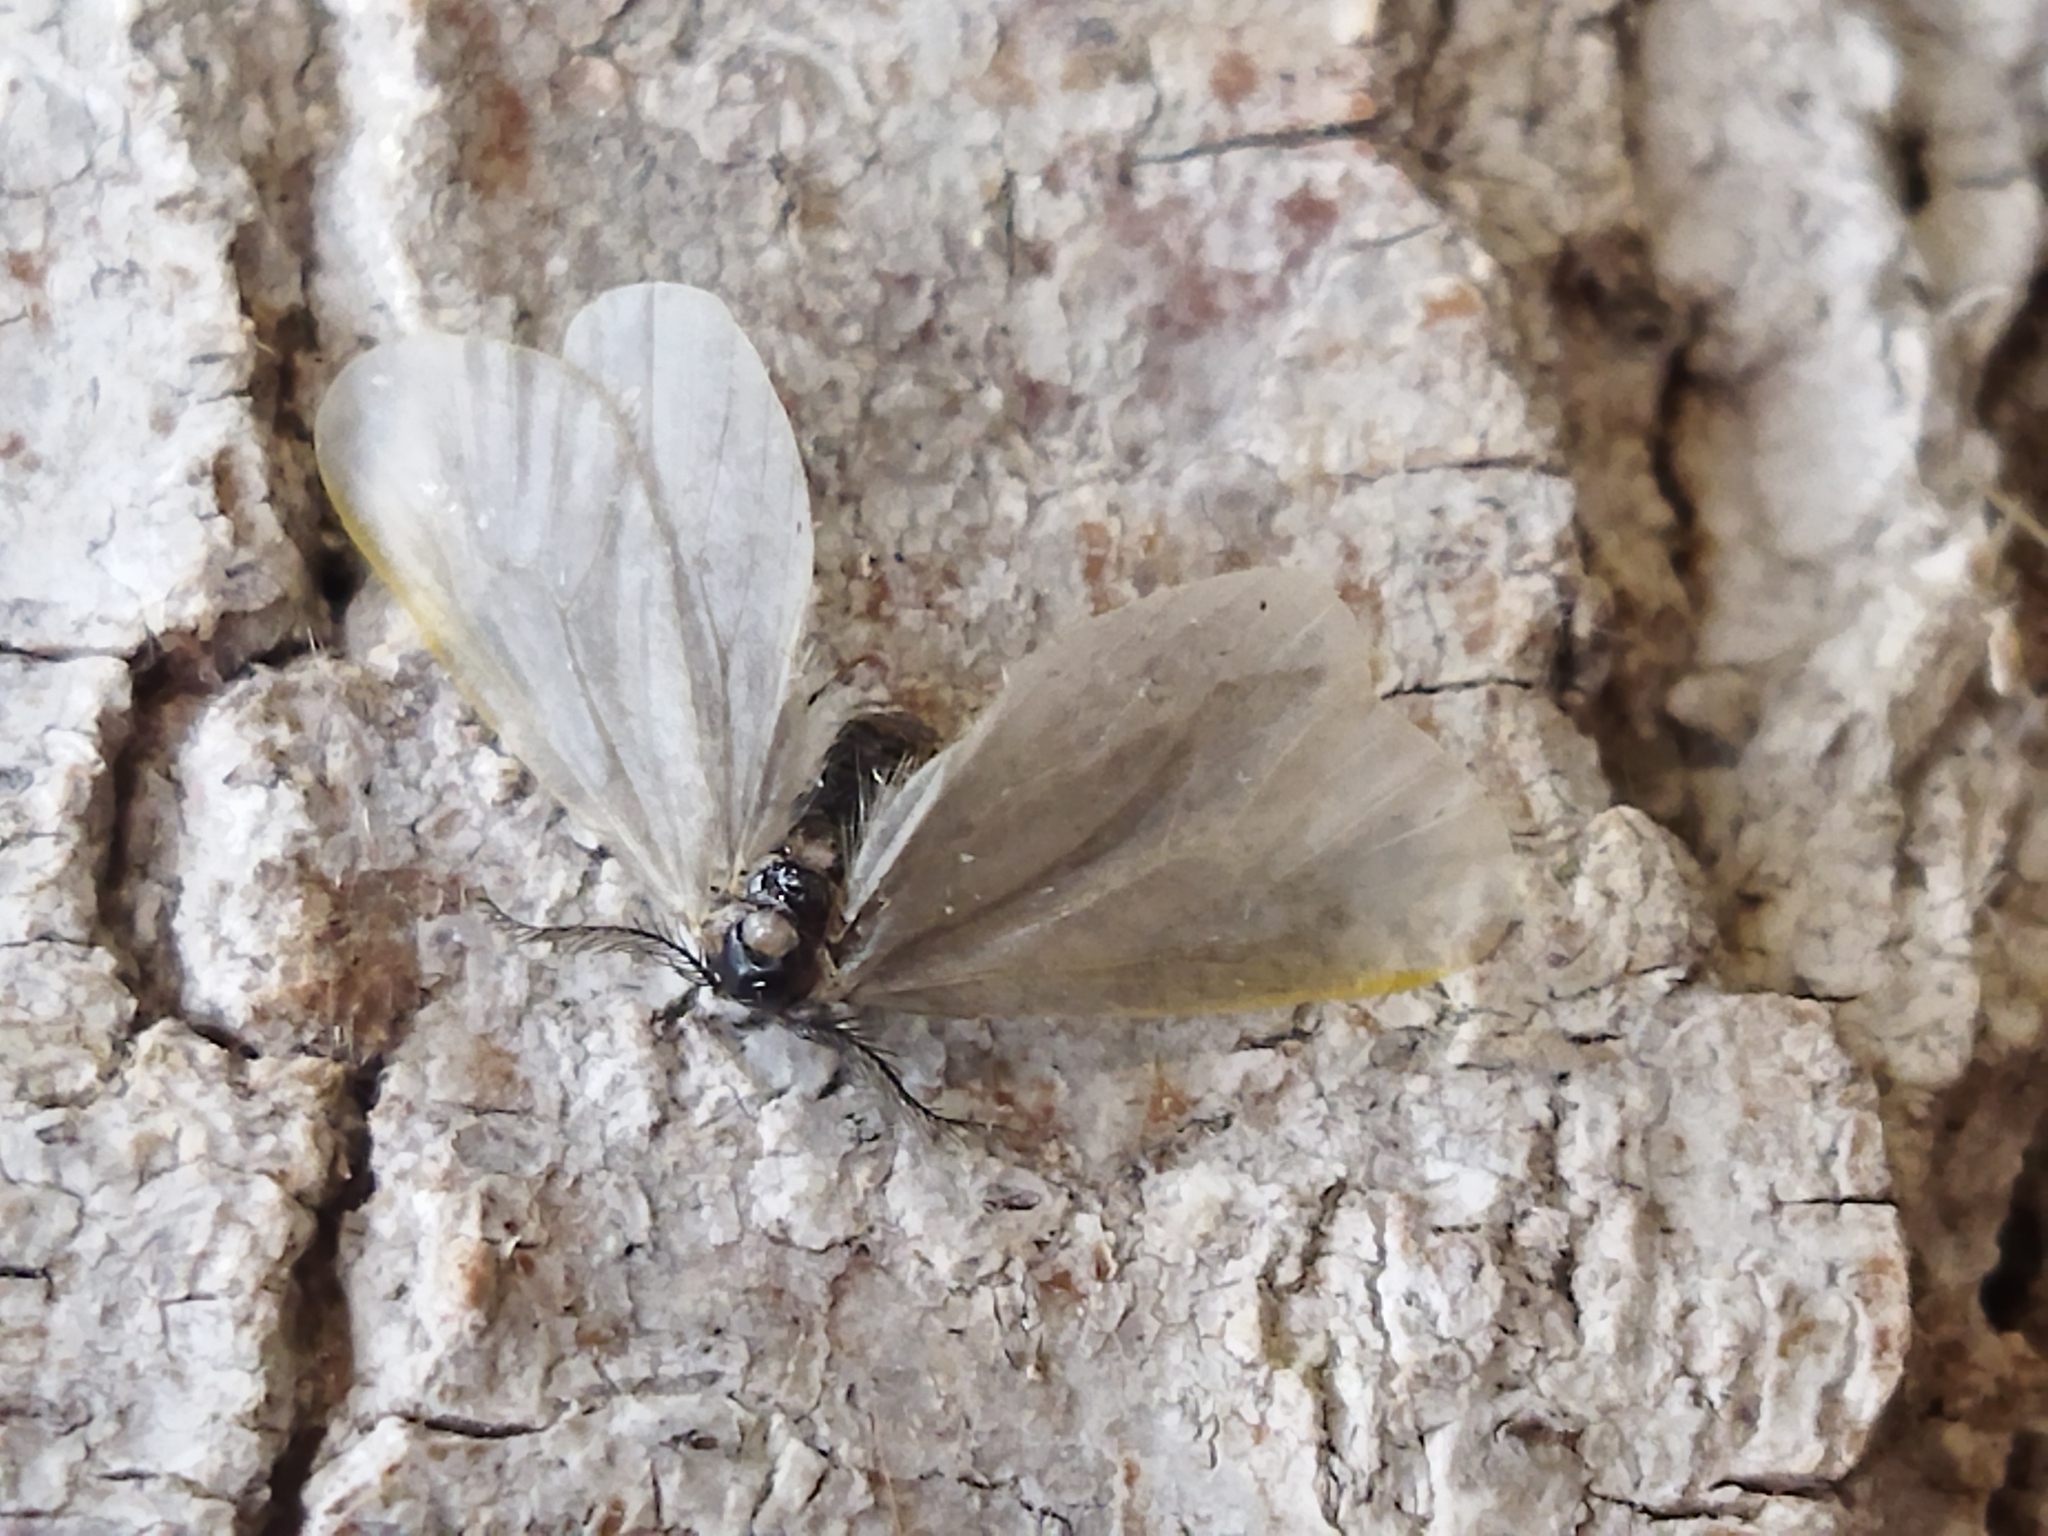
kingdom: Animalia
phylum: Arthropoda
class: Insecta
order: Lepidoptera
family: Psychidae
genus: Rebelia
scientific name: Rebelia perlucidella
